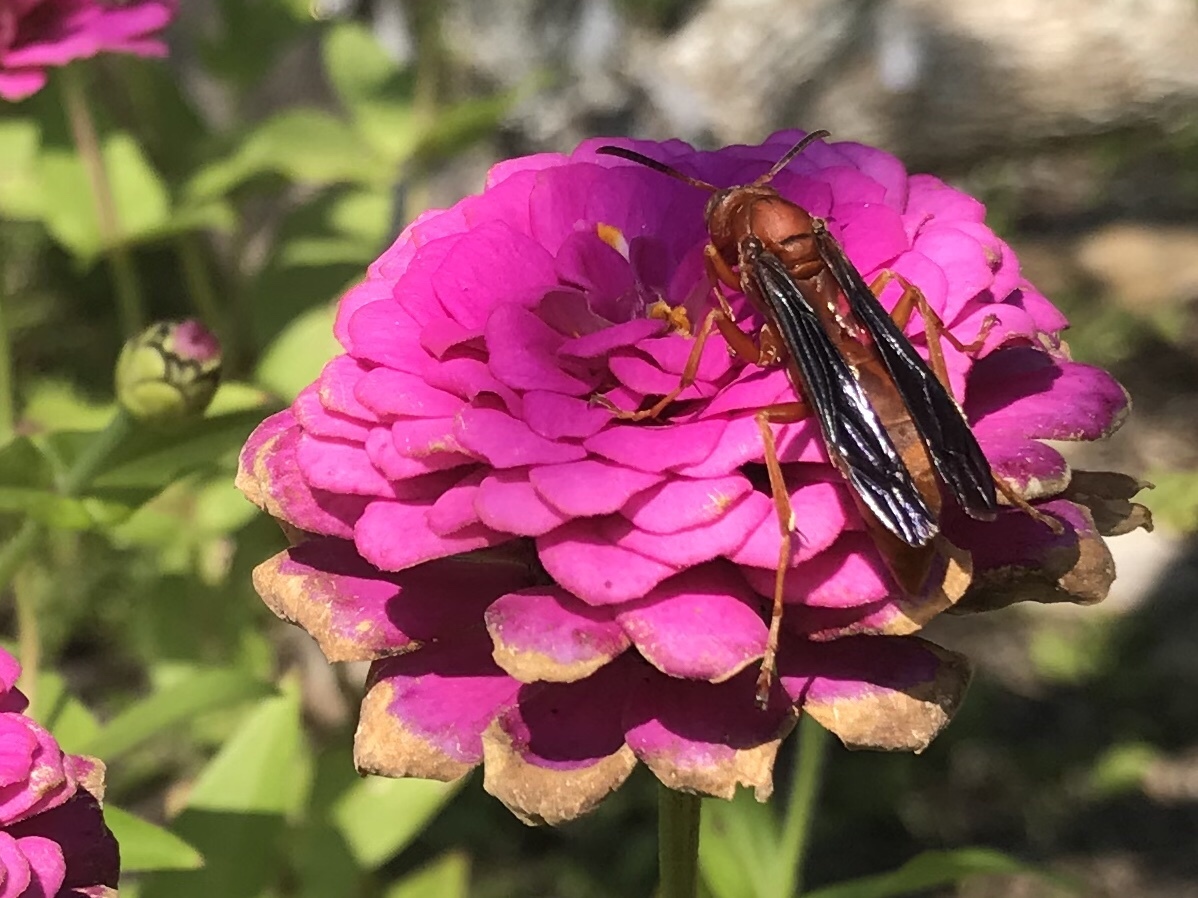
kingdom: Animalia
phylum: Arthropoda
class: Insecta
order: Hymenoptera
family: Vespidae
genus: Fuscopolistes
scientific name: Fuscopolistes
